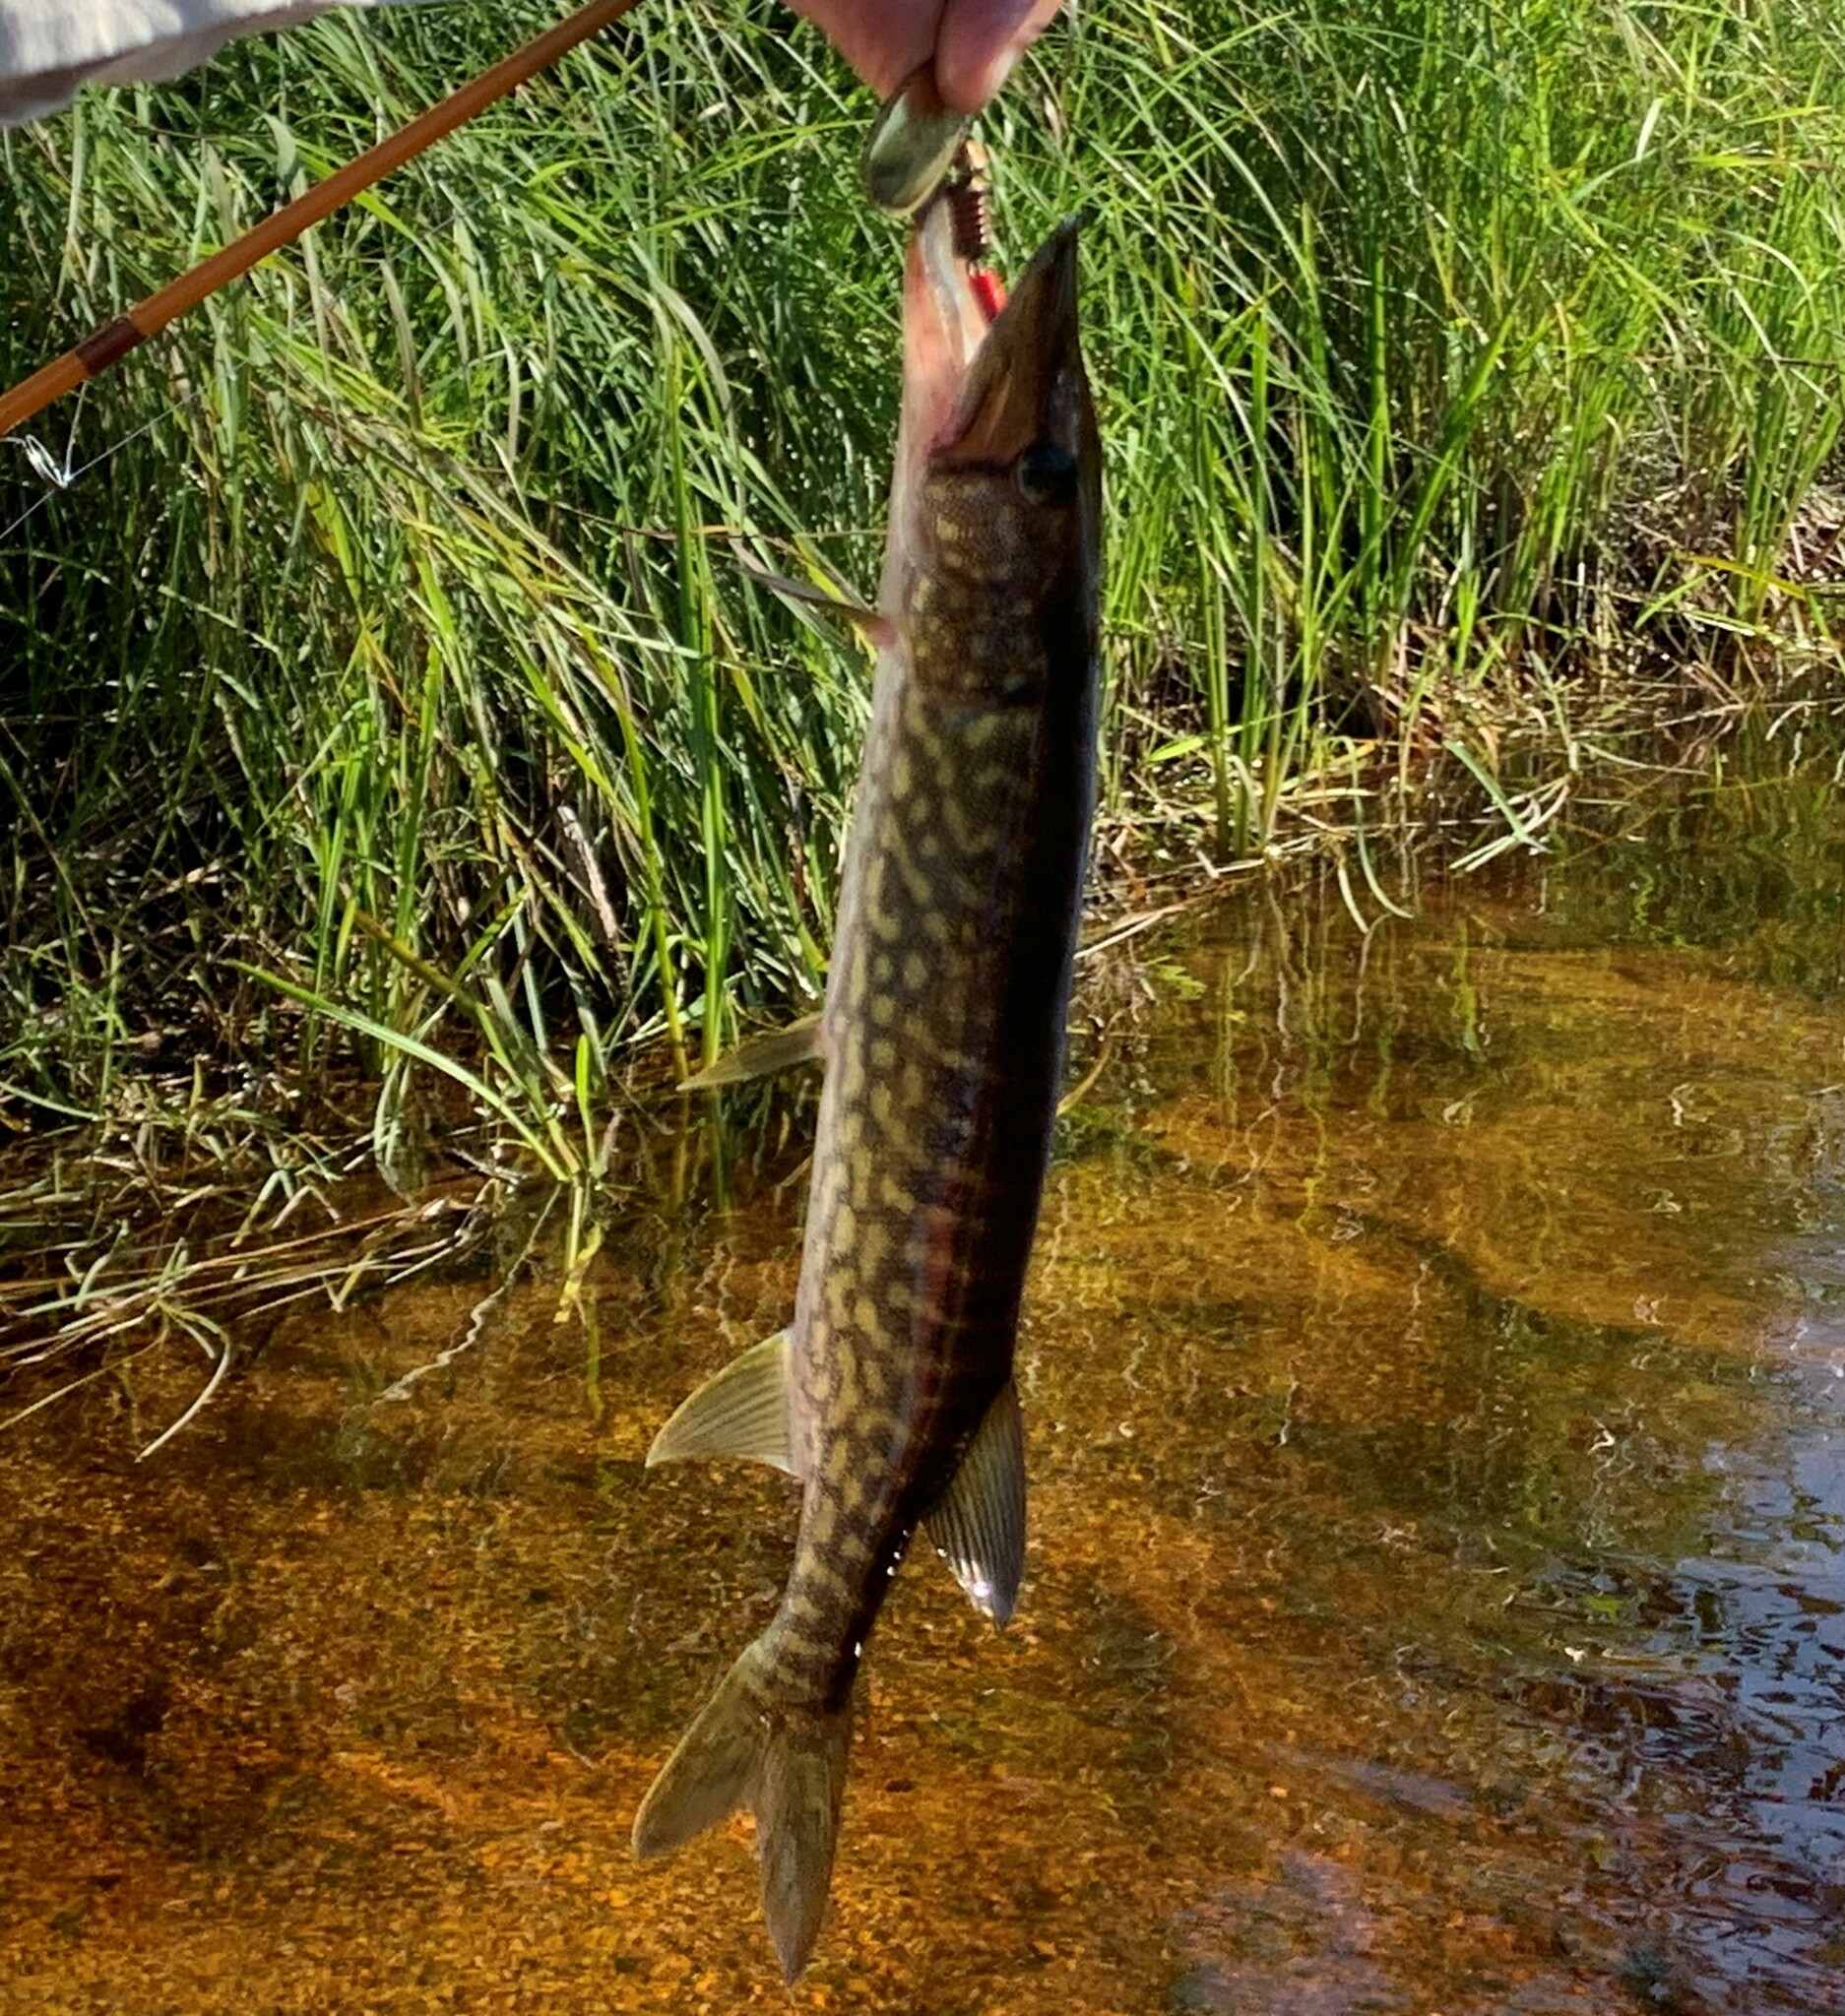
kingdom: Animalia
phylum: Chordata
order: Esociformes
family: Esocidae
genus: Esox
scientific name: Esox niger
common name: Chain pickerel
